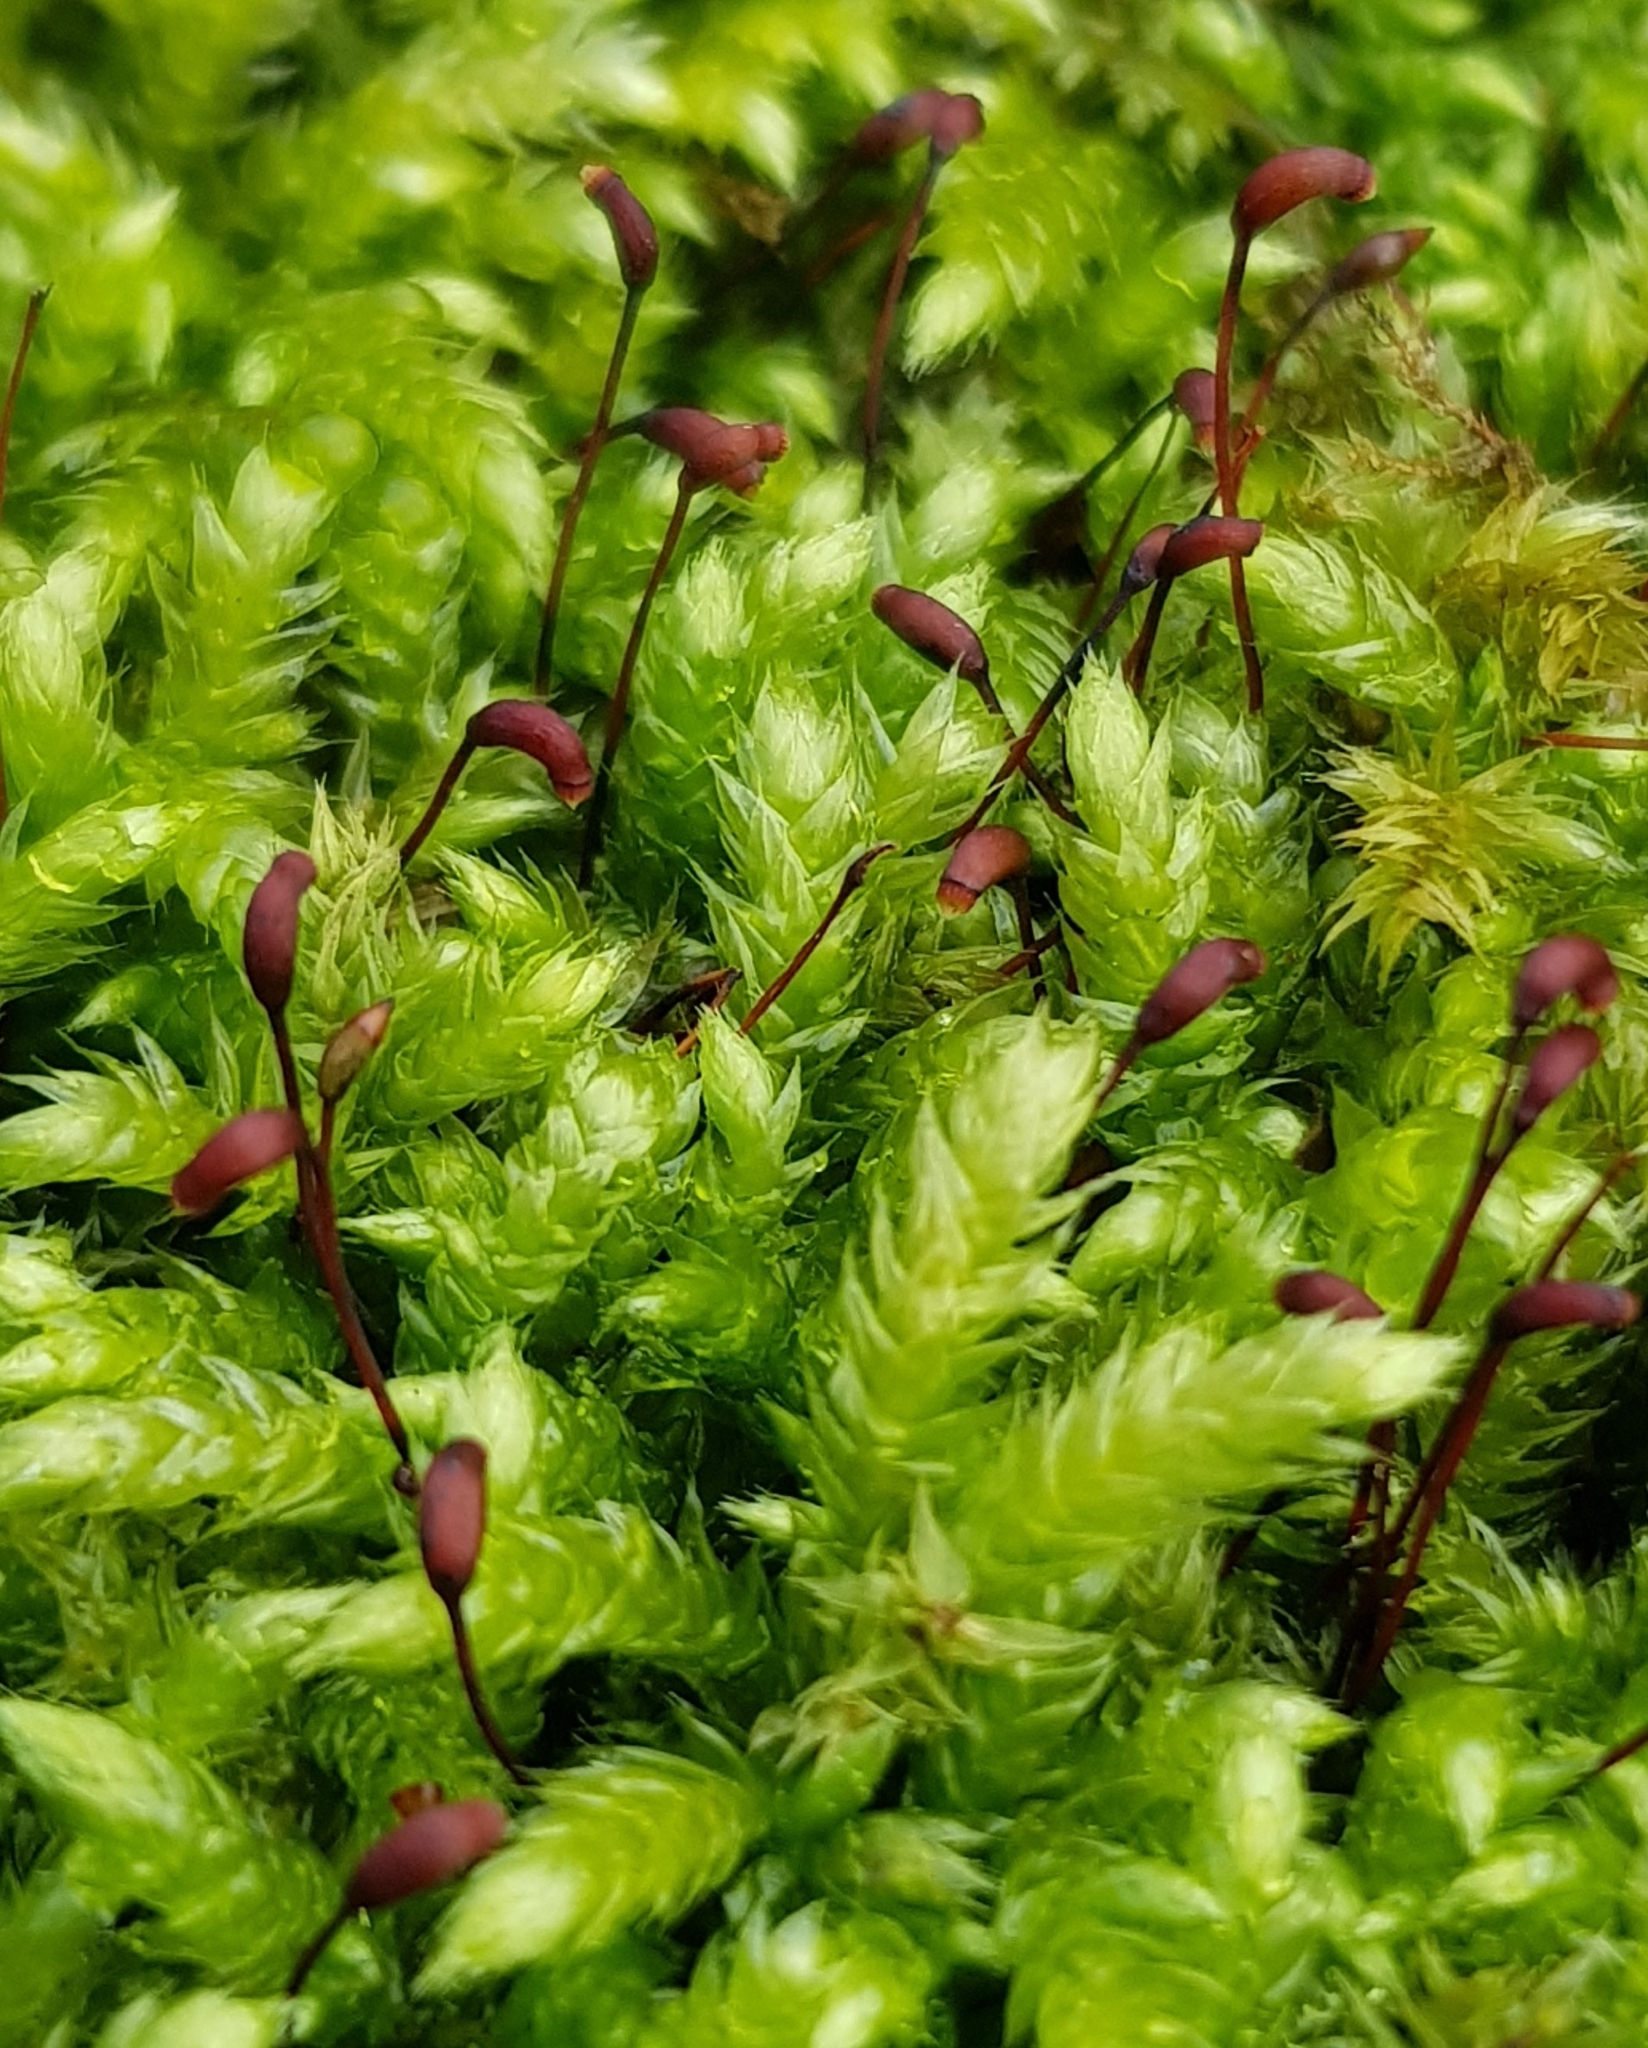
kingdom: Plantae
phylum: Bryophyta
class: Bryopsida
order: Hypnales
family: Brachytheciaceae
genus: Brachythecium
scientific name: Brachythecium rutabulum
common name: Rough-stalked feather-moss
